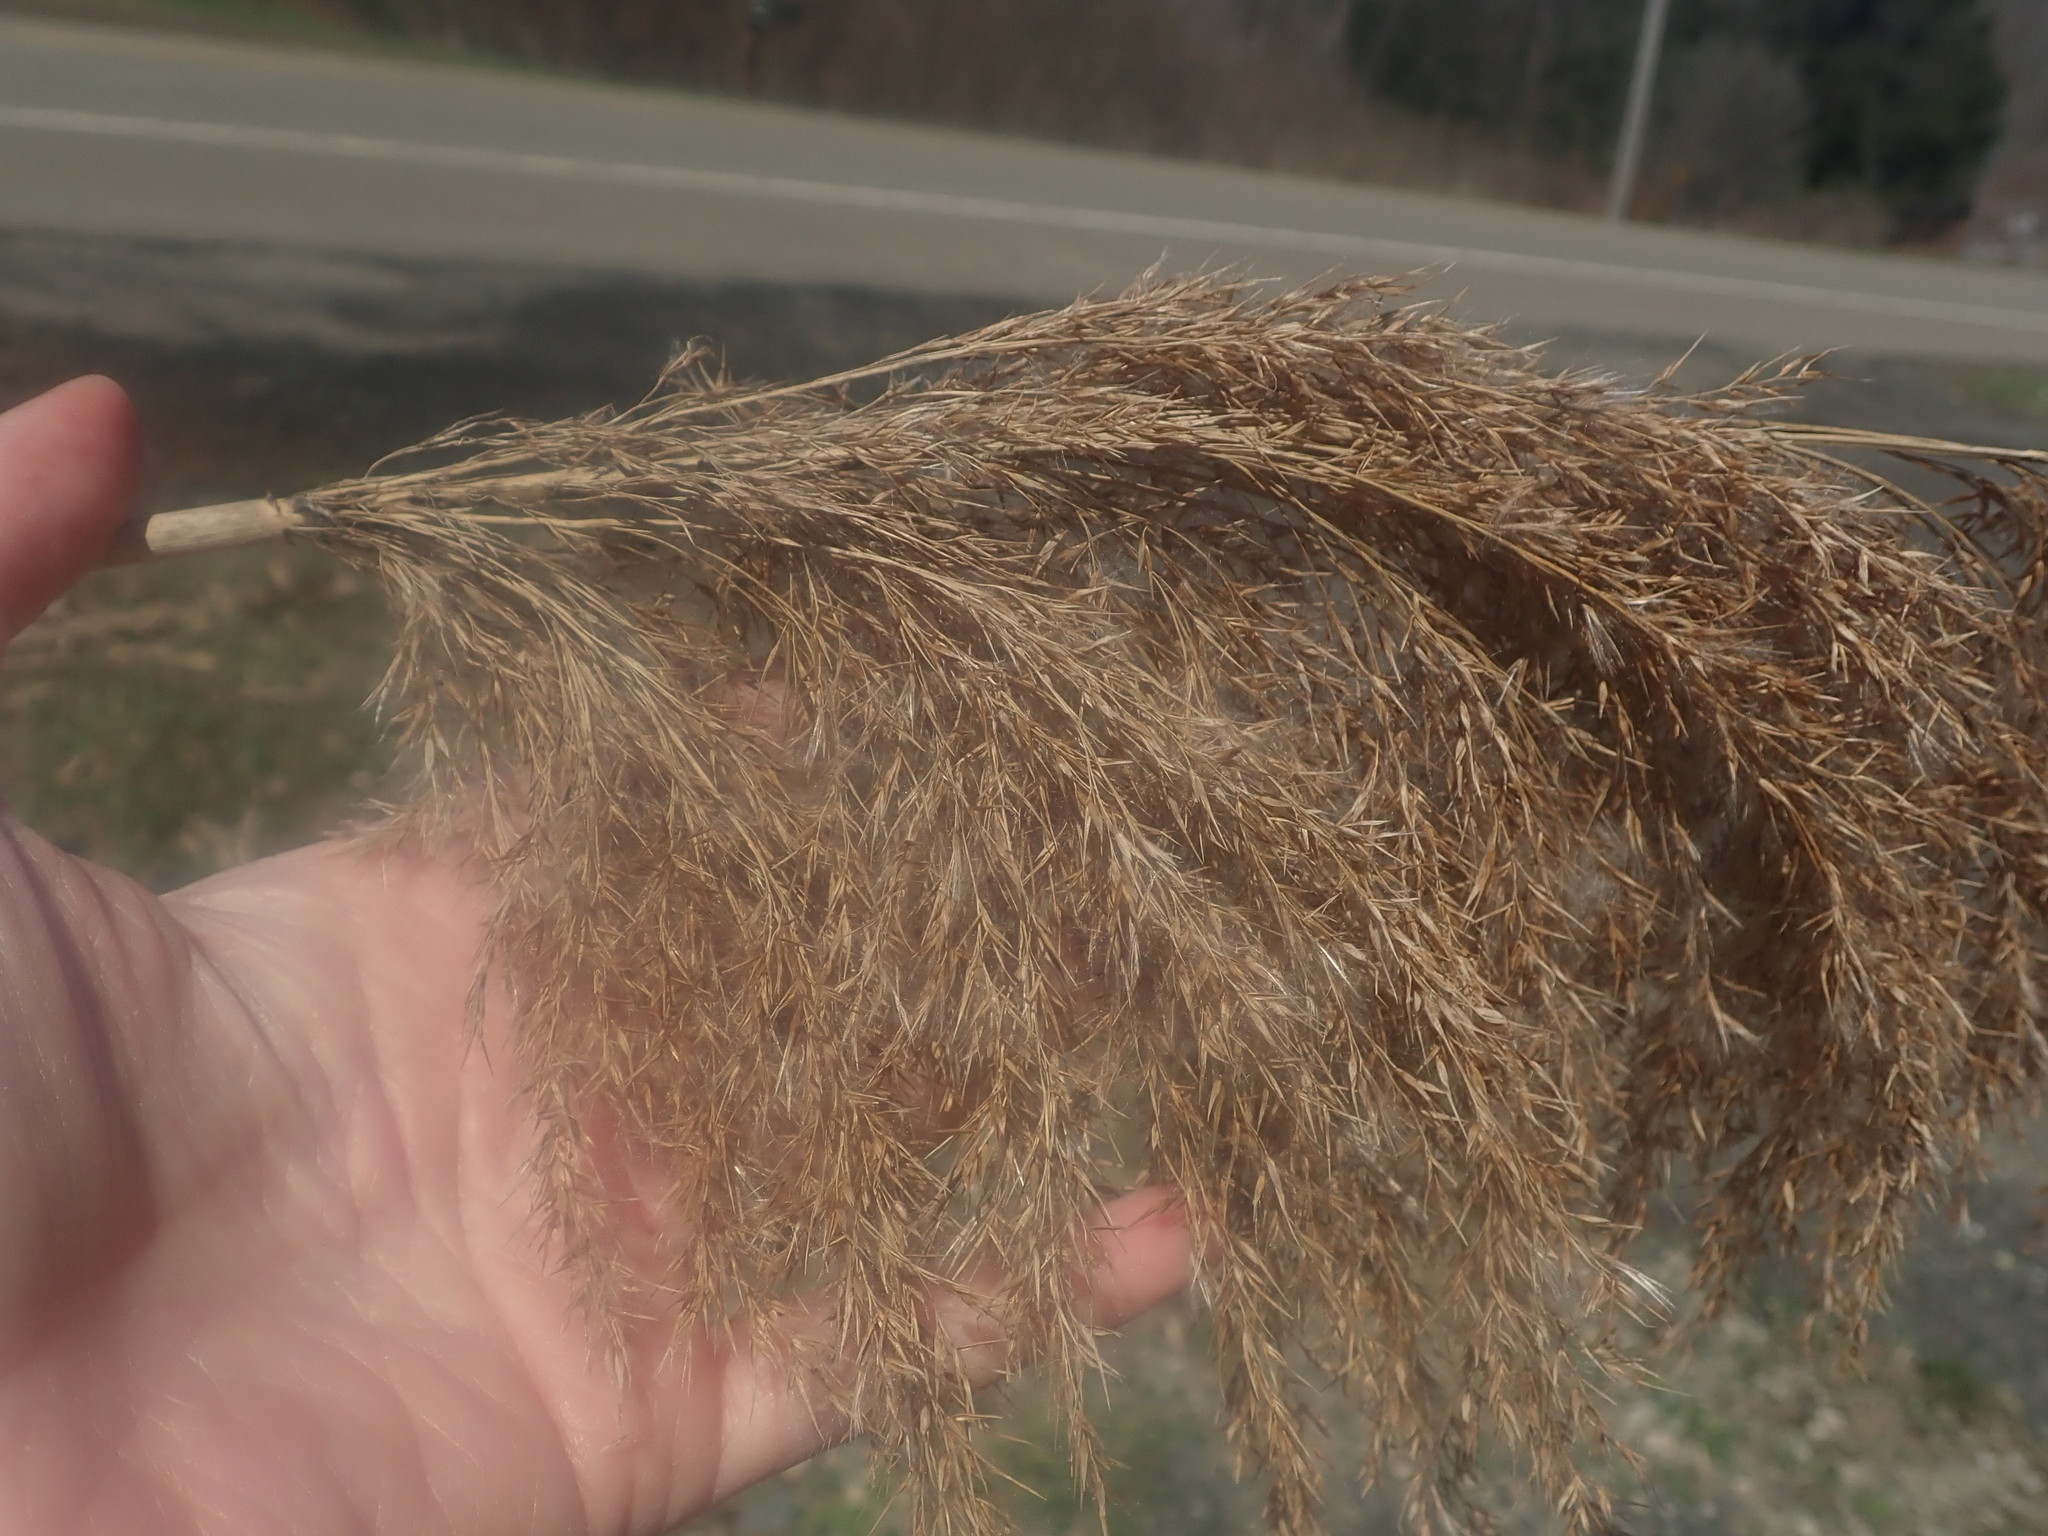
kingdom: Plantae
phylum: Tracheophyta
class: Liliopsida
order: Poales
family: Poaceae
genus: Phragmites
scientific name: Phragmites australis
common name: Common reed
